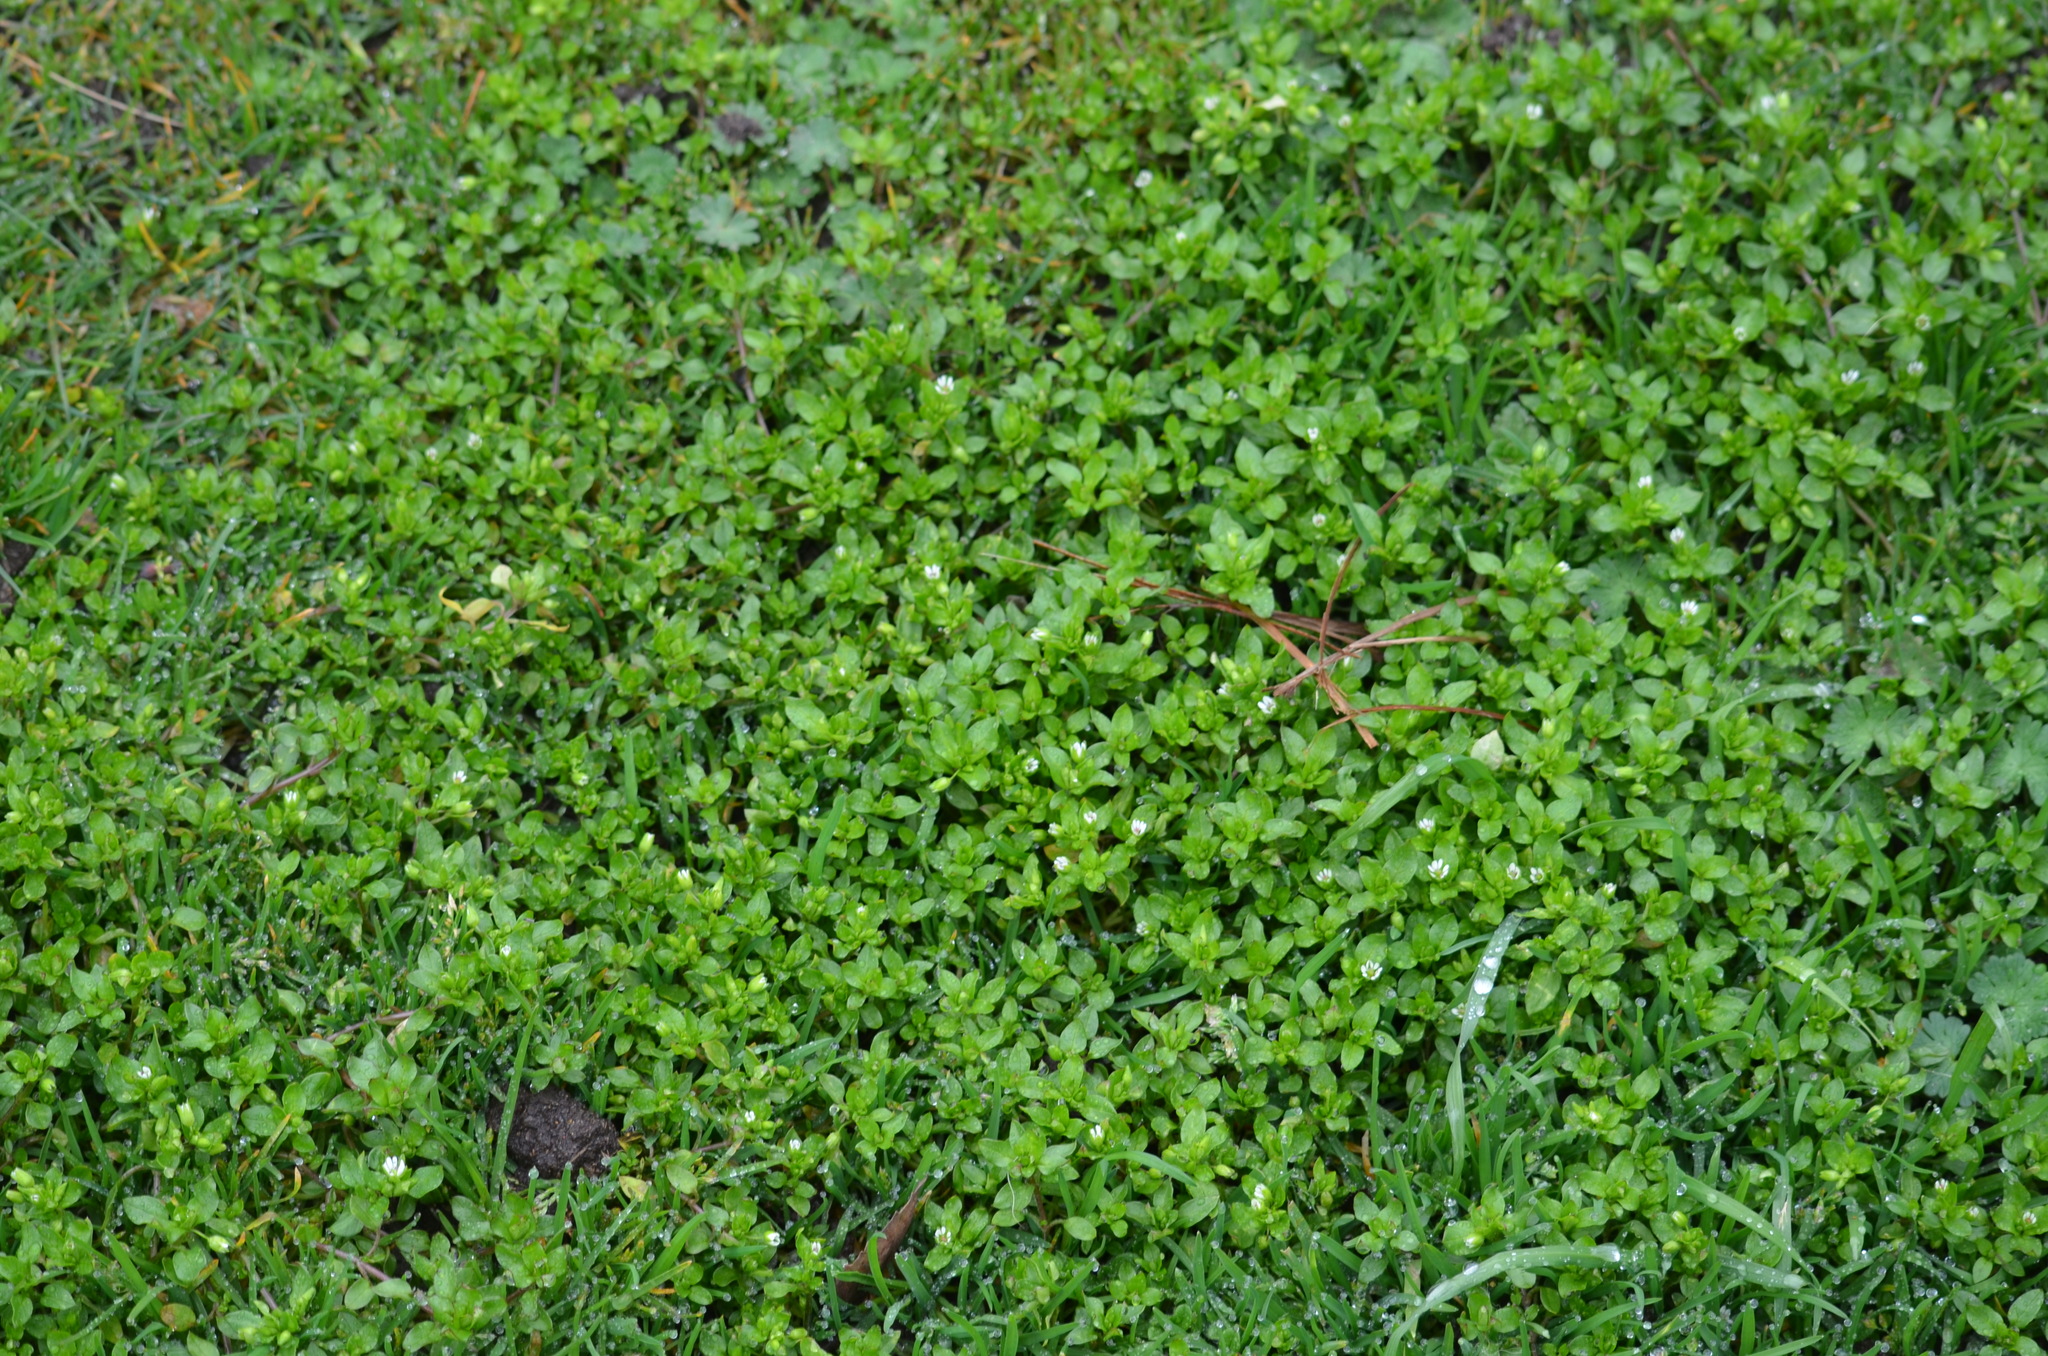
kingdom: Plantae
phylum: Tracheophyta
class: Magnoliopsida
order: Caryophyllales
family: Caryophyllaceae
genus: Stellaria
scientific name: Stellaria media
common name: Common chickweed
